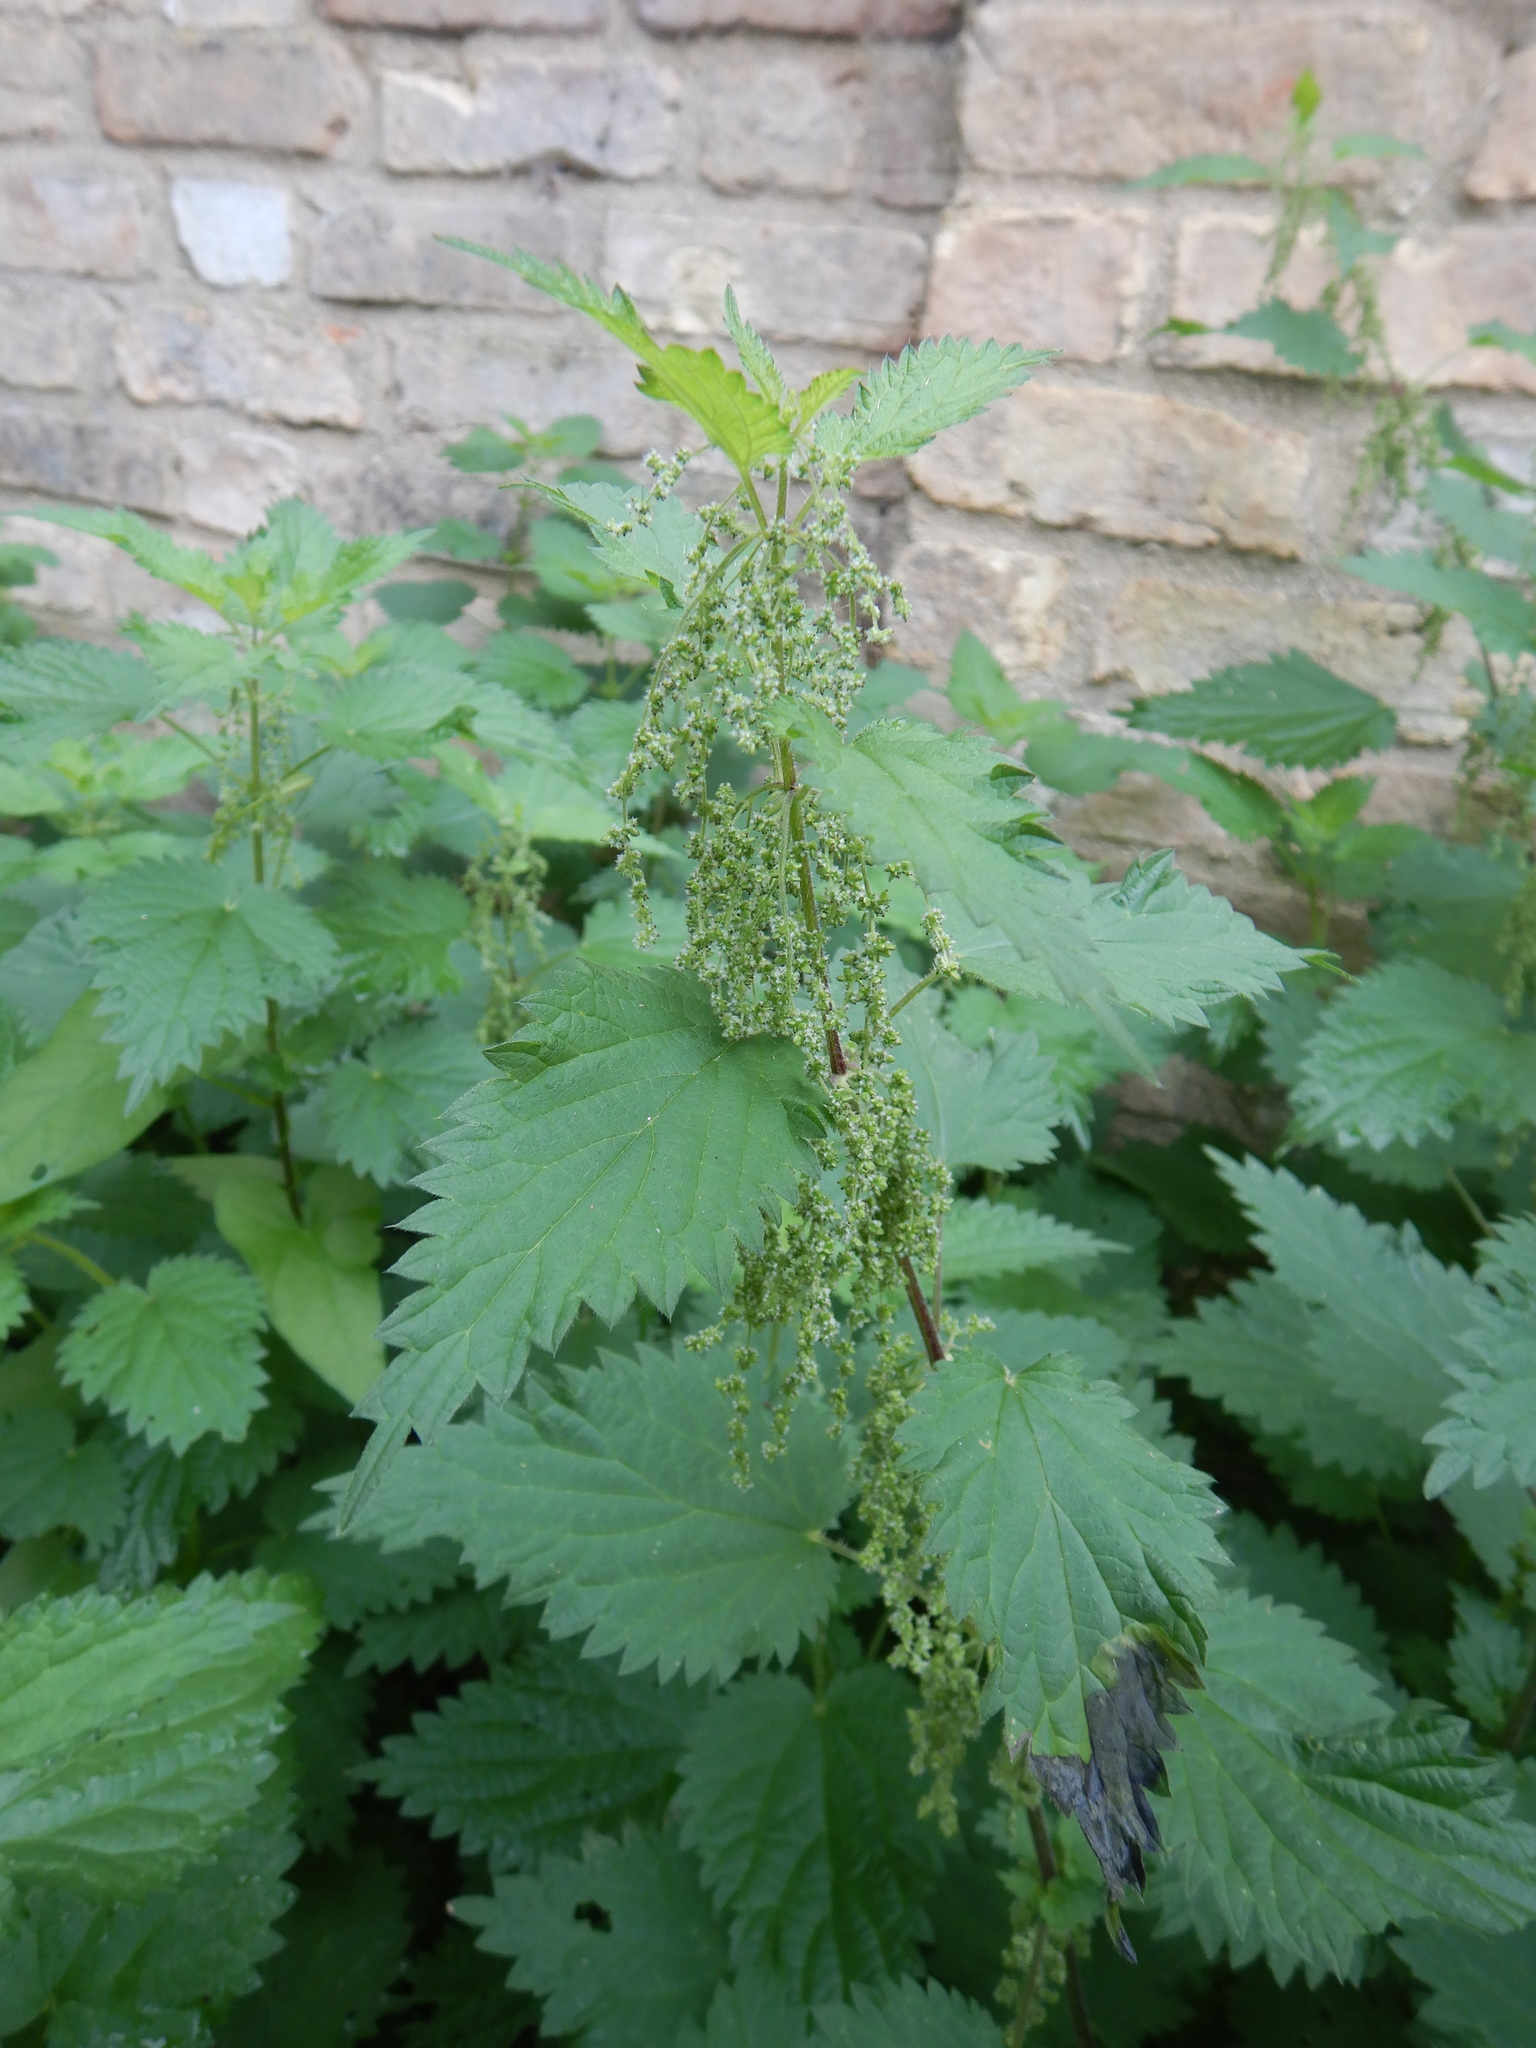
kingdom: Plantae
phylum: Tracheophyta
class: Magnoliopsida
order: Rosales
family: Urticaceae
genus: Urtica
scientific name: Urtica dioica
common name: Common nettle
